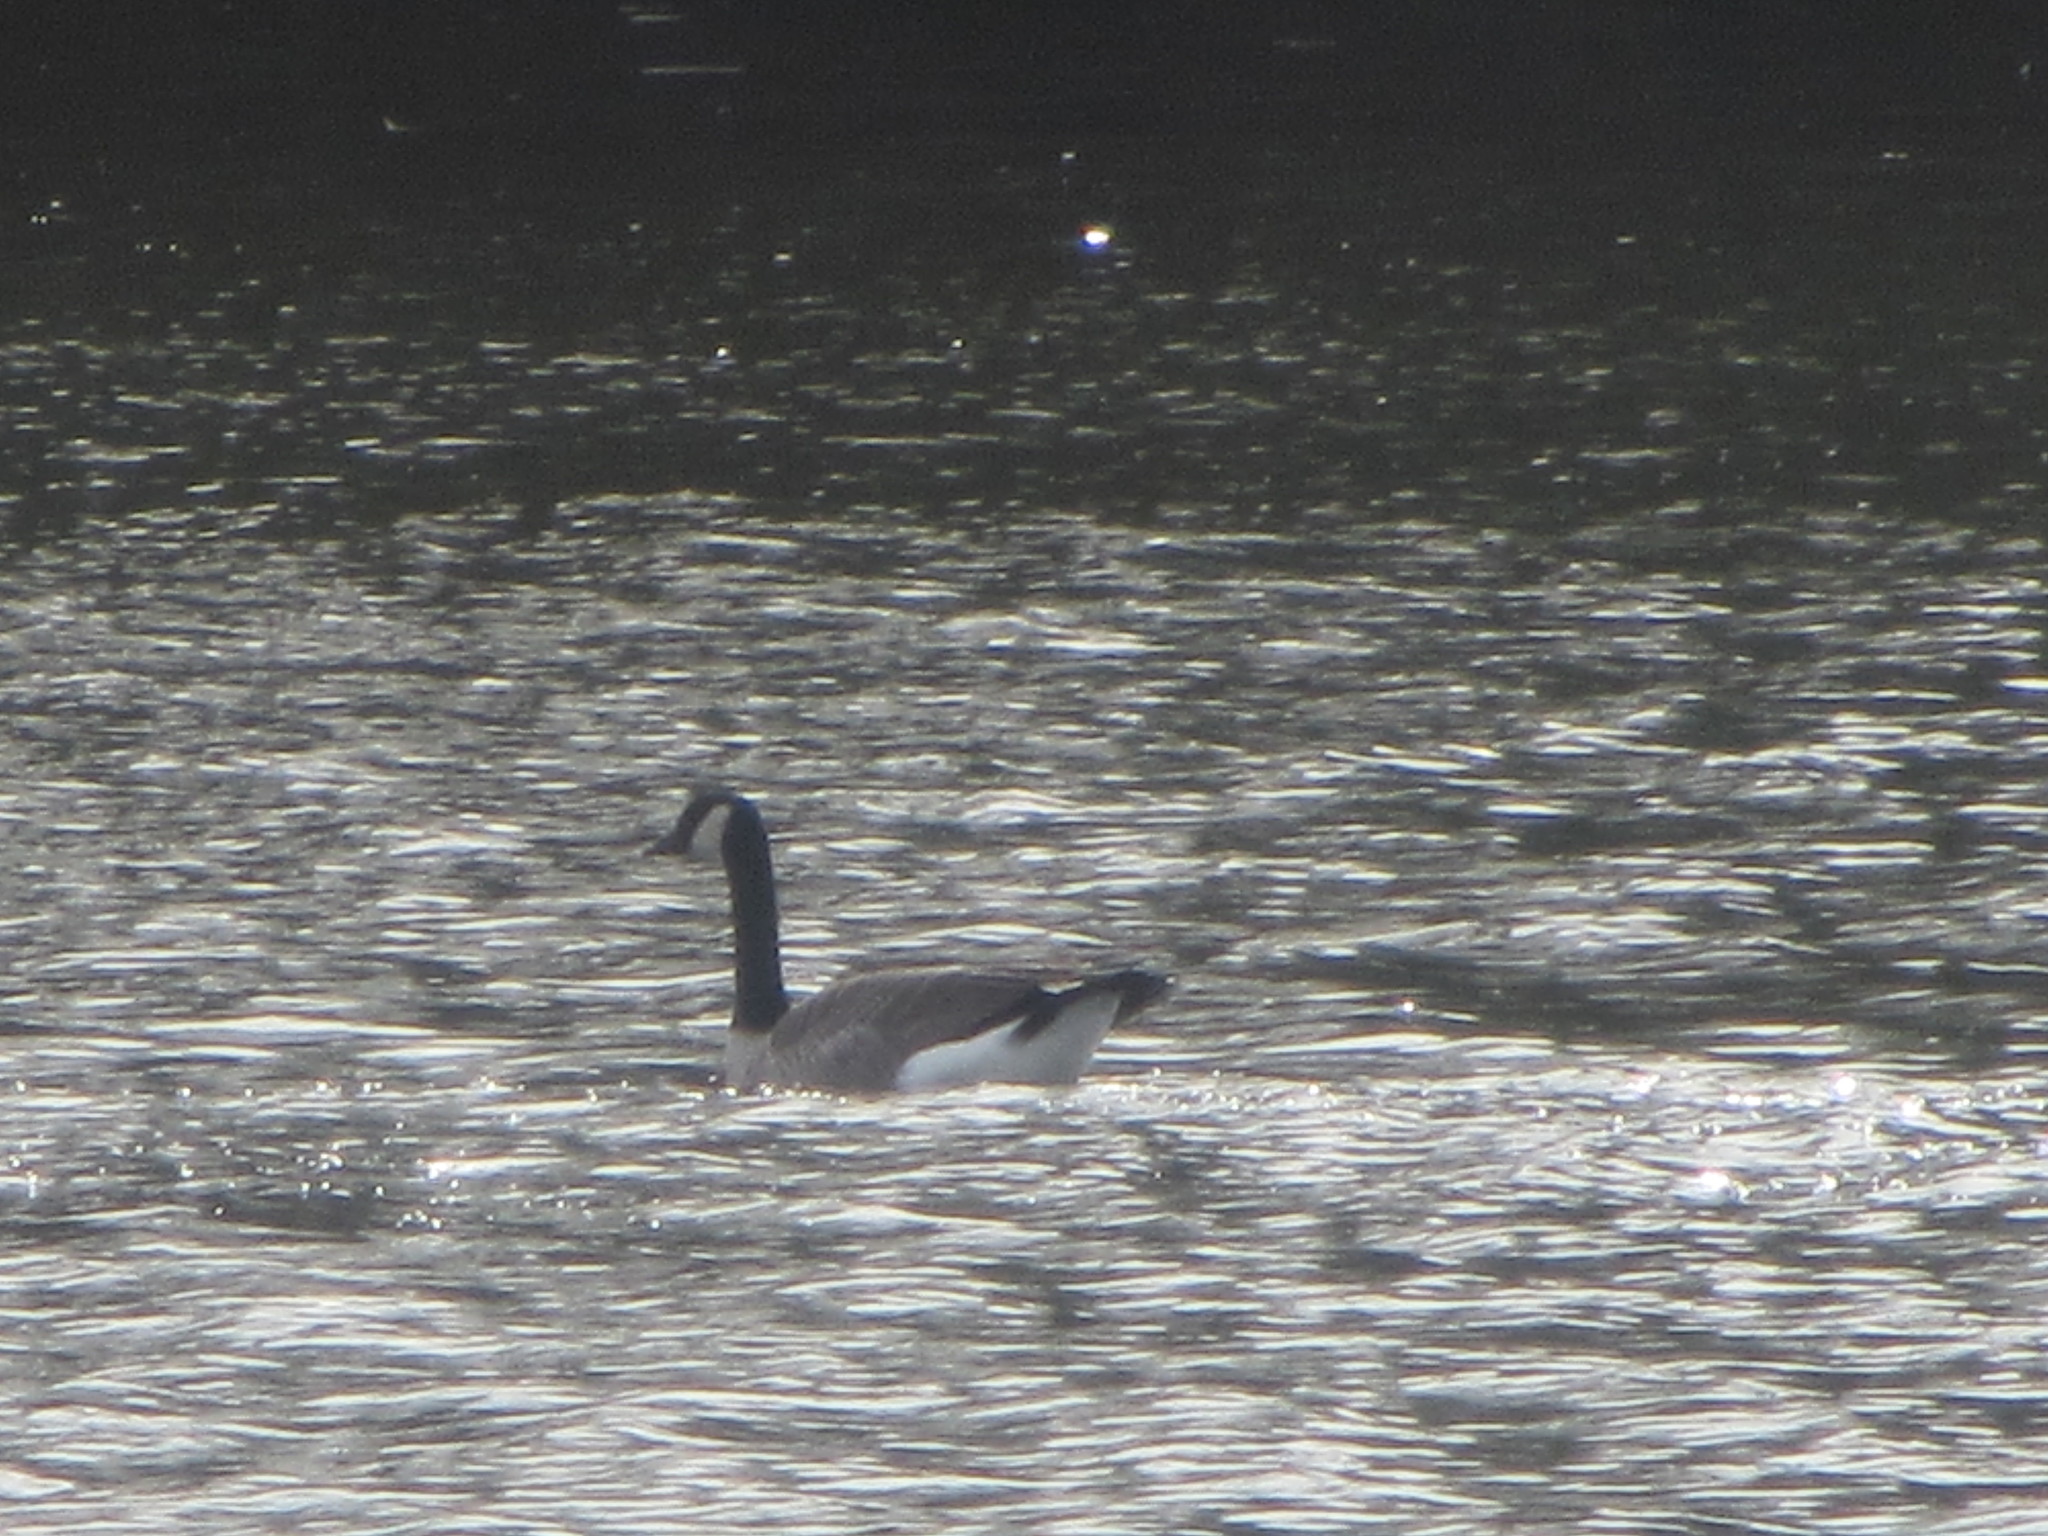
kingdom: Animalia
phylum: Chordata
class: Aves
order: Anseriformes
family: Anatidae
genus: Branta
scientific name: Branta canadensis
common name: Canada goose
